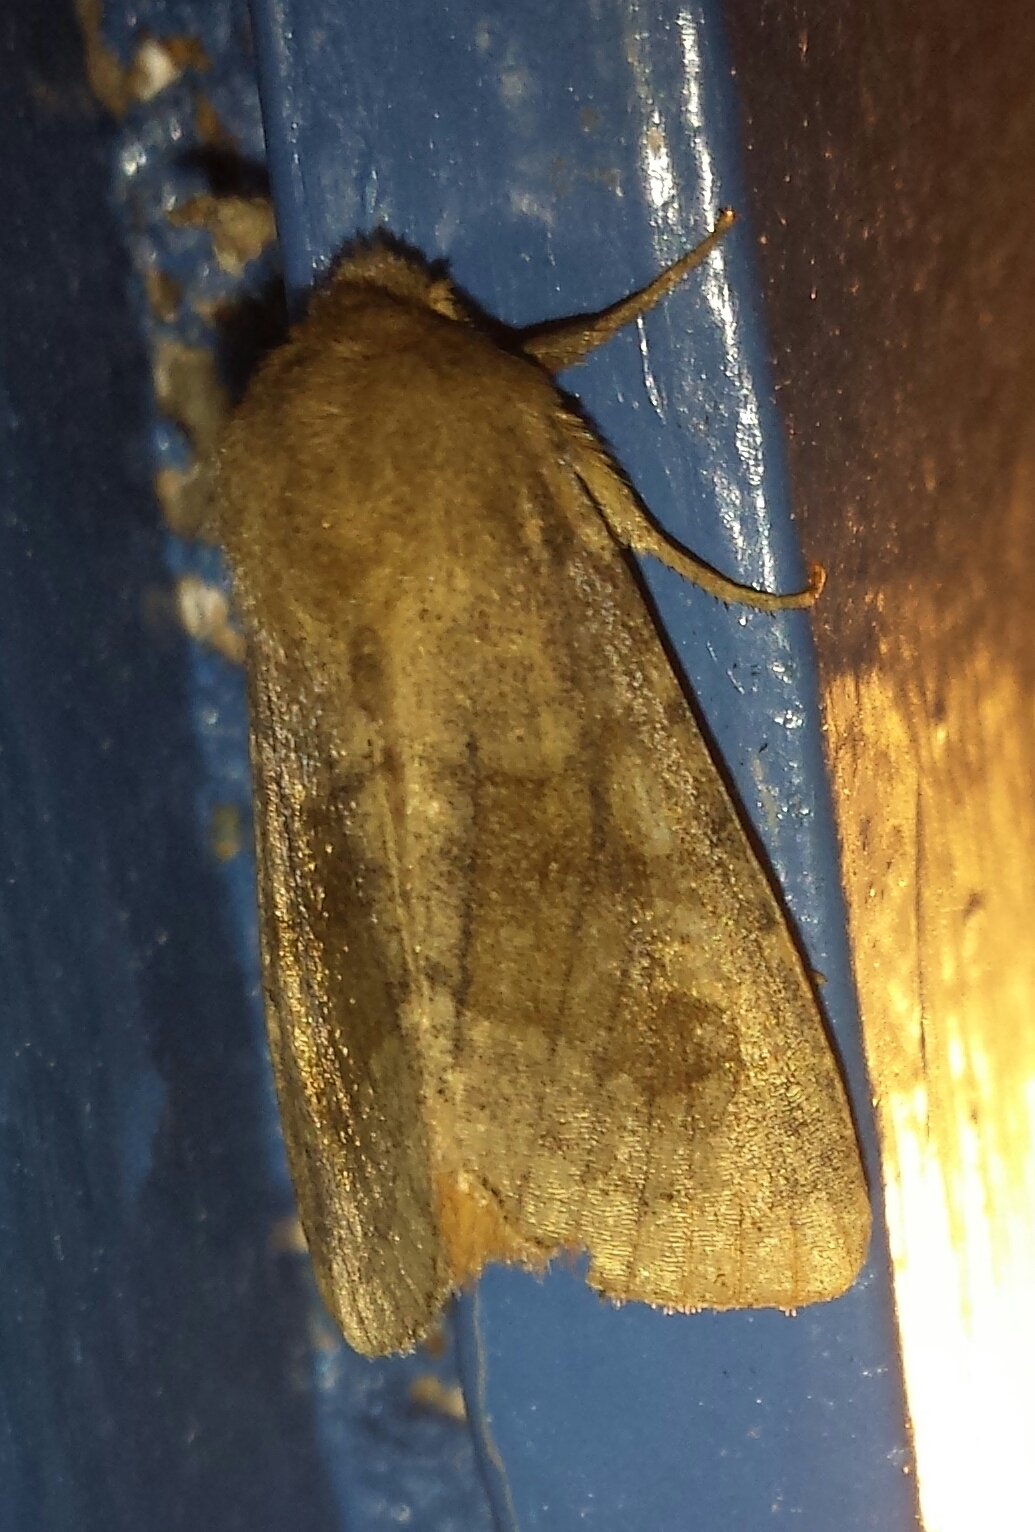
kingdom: Animalia
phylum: Arthropoda
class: Insecta
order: Lepidoptera
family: Noctuidae
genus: Nephelodes
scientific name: Nephelodes minians
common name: Bronzed cutworm
